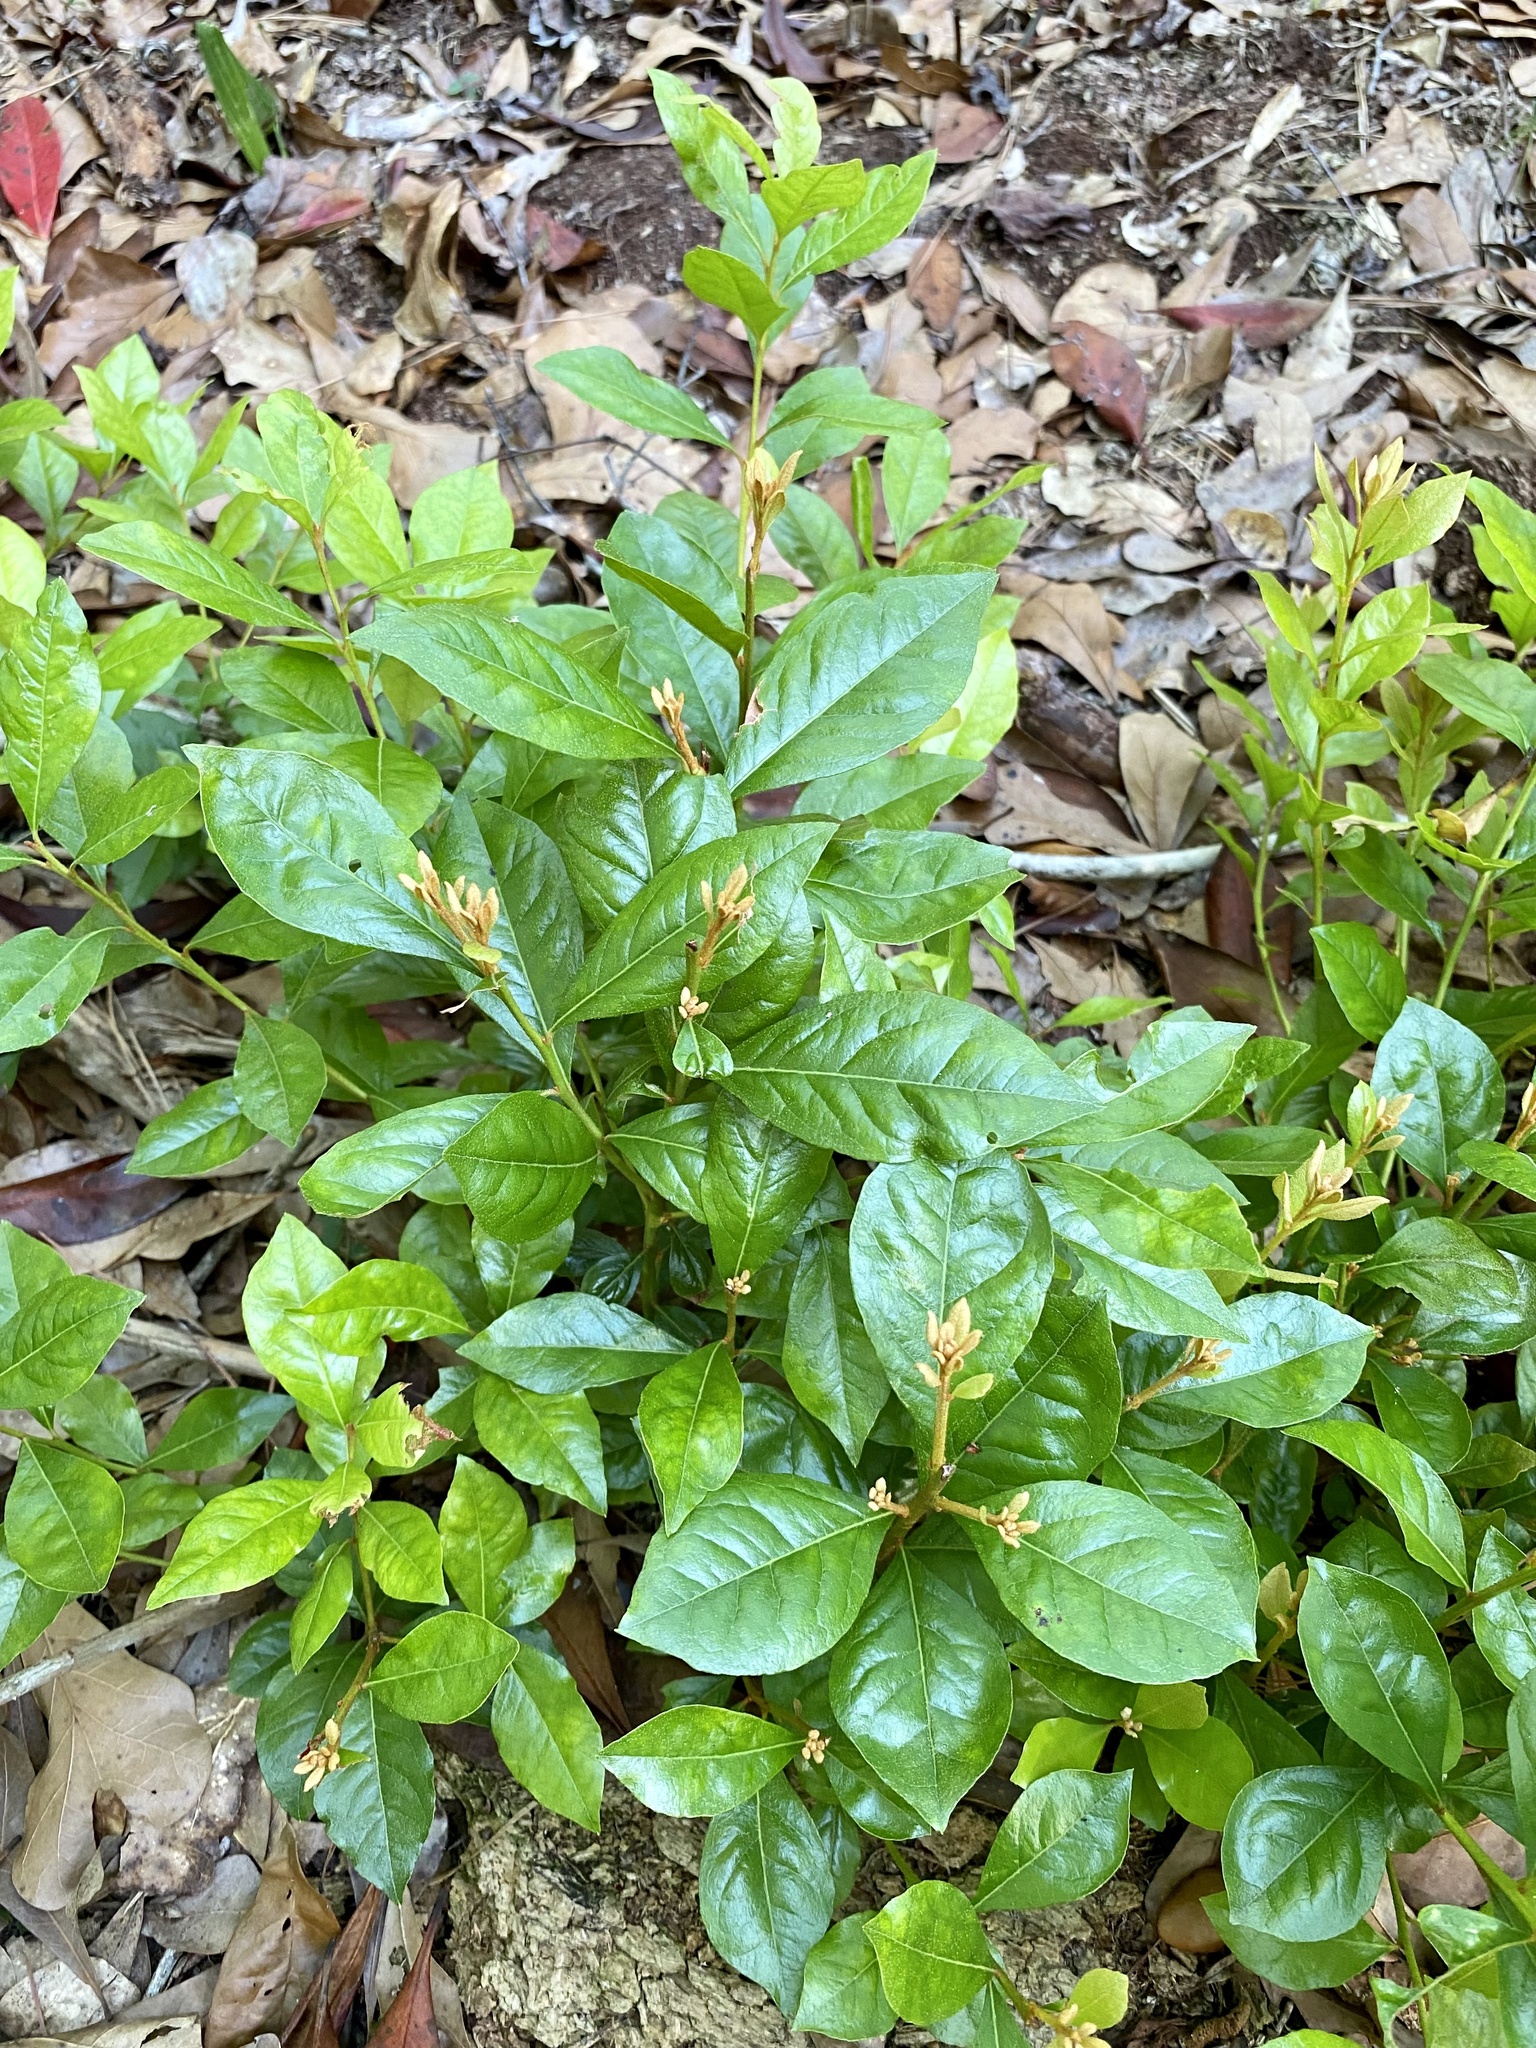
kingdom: Plantae
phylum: Tracheophyta
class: Magnoliopsida
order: Ericales
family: Ericaceae
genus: Lyonia
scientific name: Lyonia ferruginea
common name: Rusty lyonia
